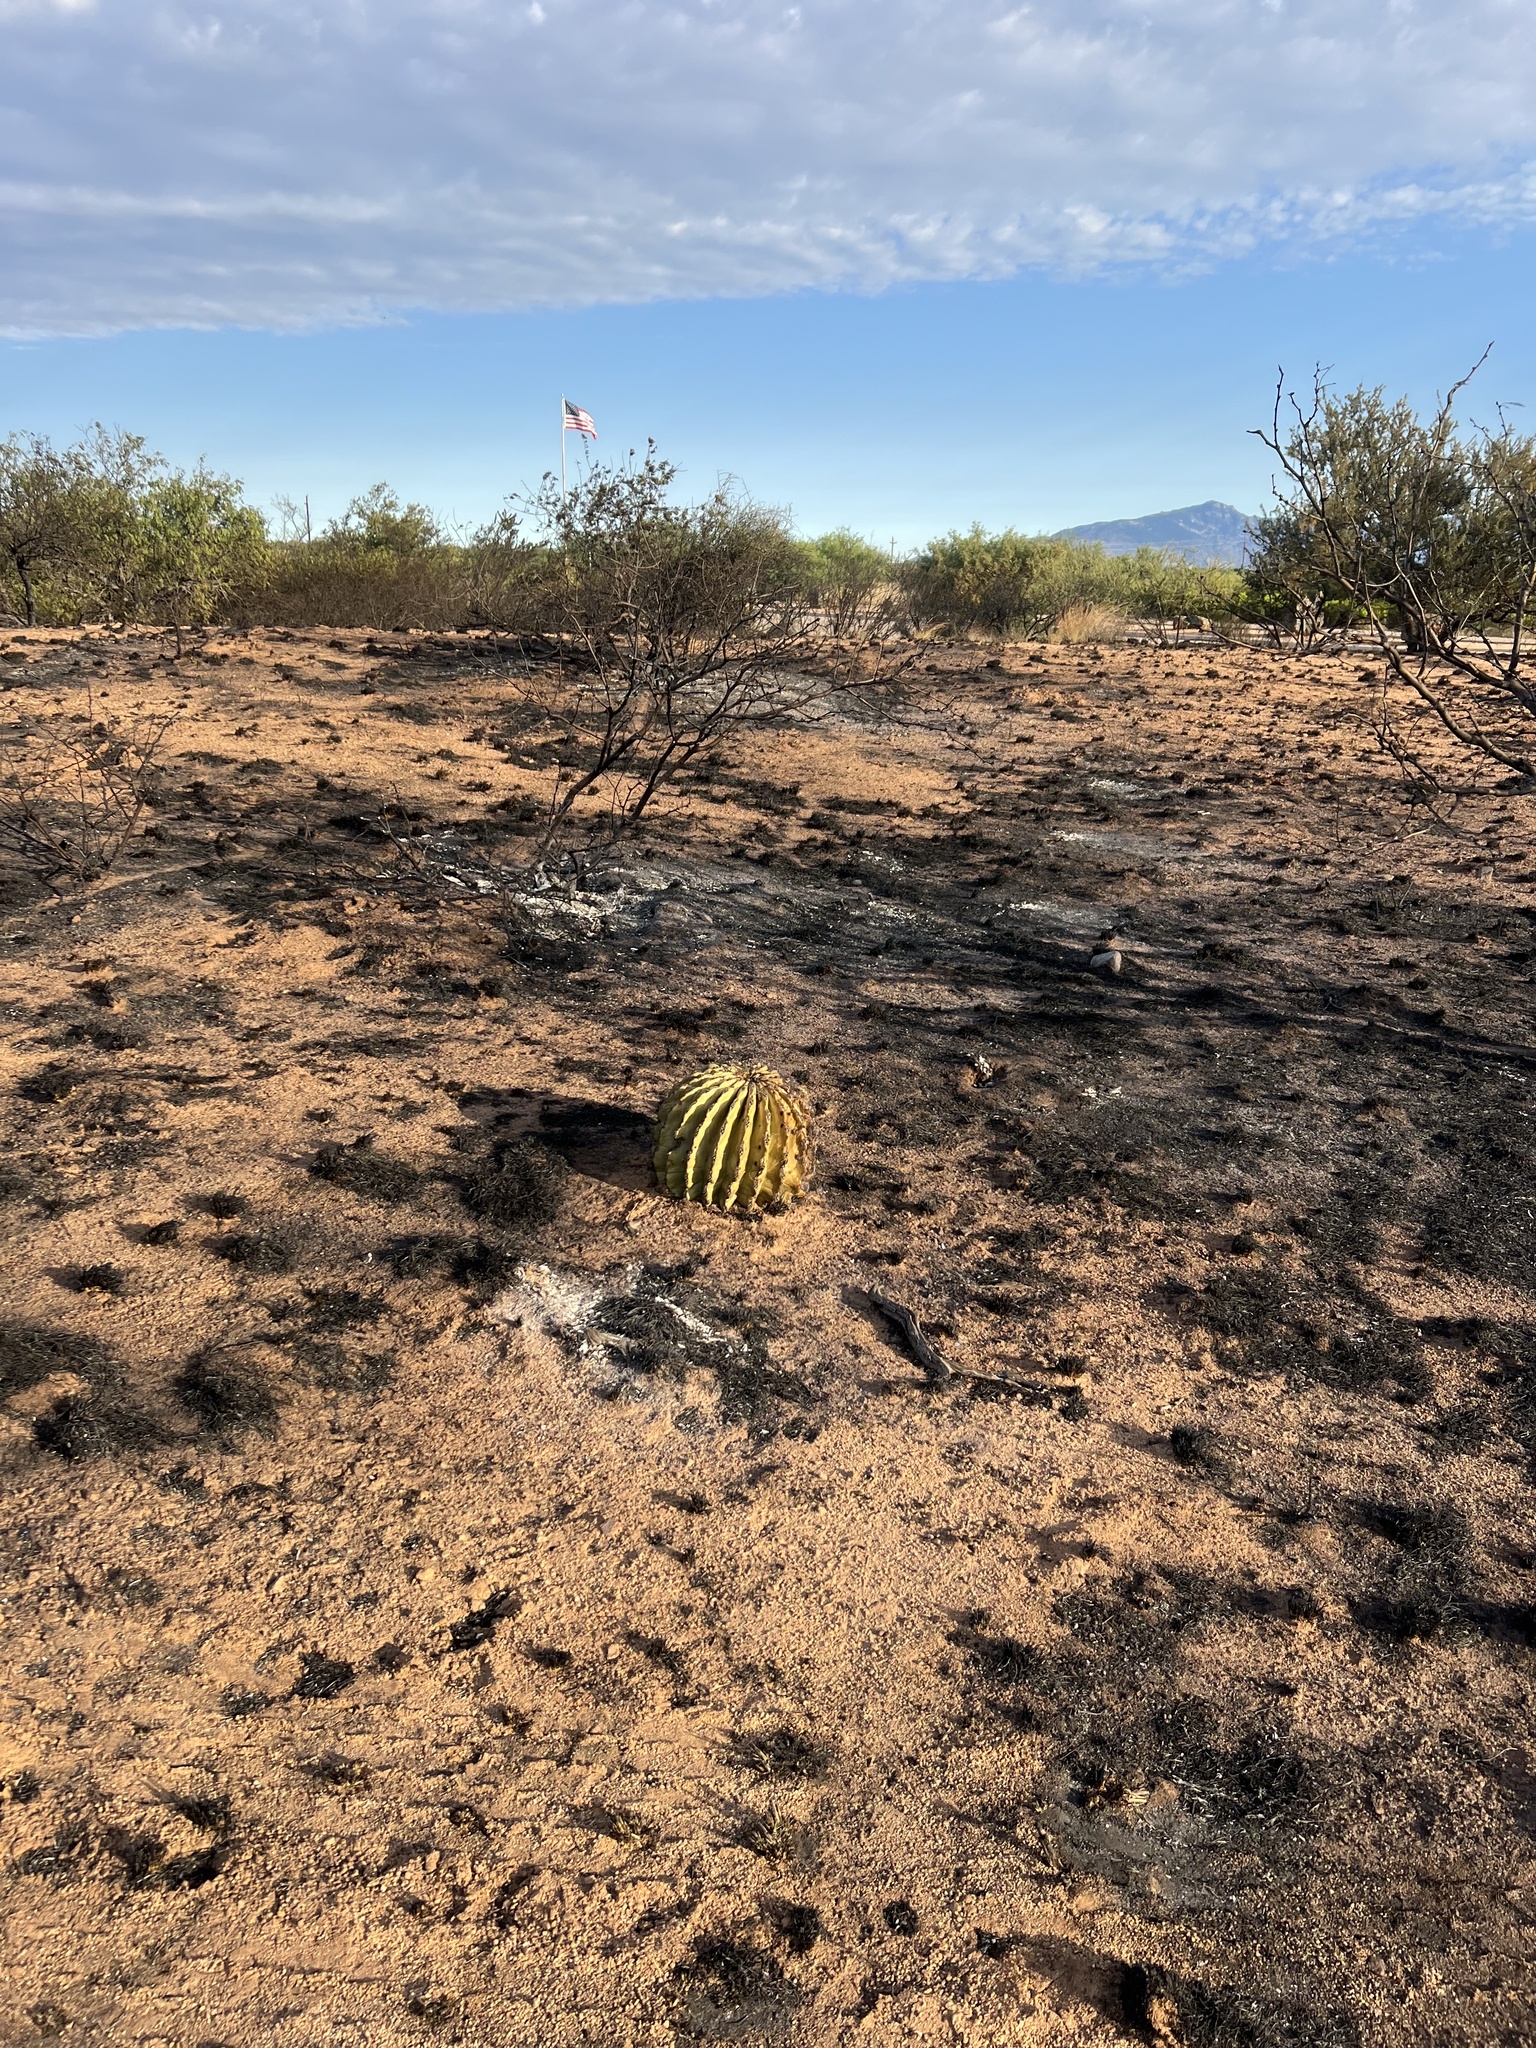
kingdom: Plantae
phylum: Tracheophyta
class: Magnoliopsida
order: Caryophyllales
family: Cactaceae
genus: Ferocactus
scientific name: Ferocactus wislizeni
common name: Candy barrel cactus
